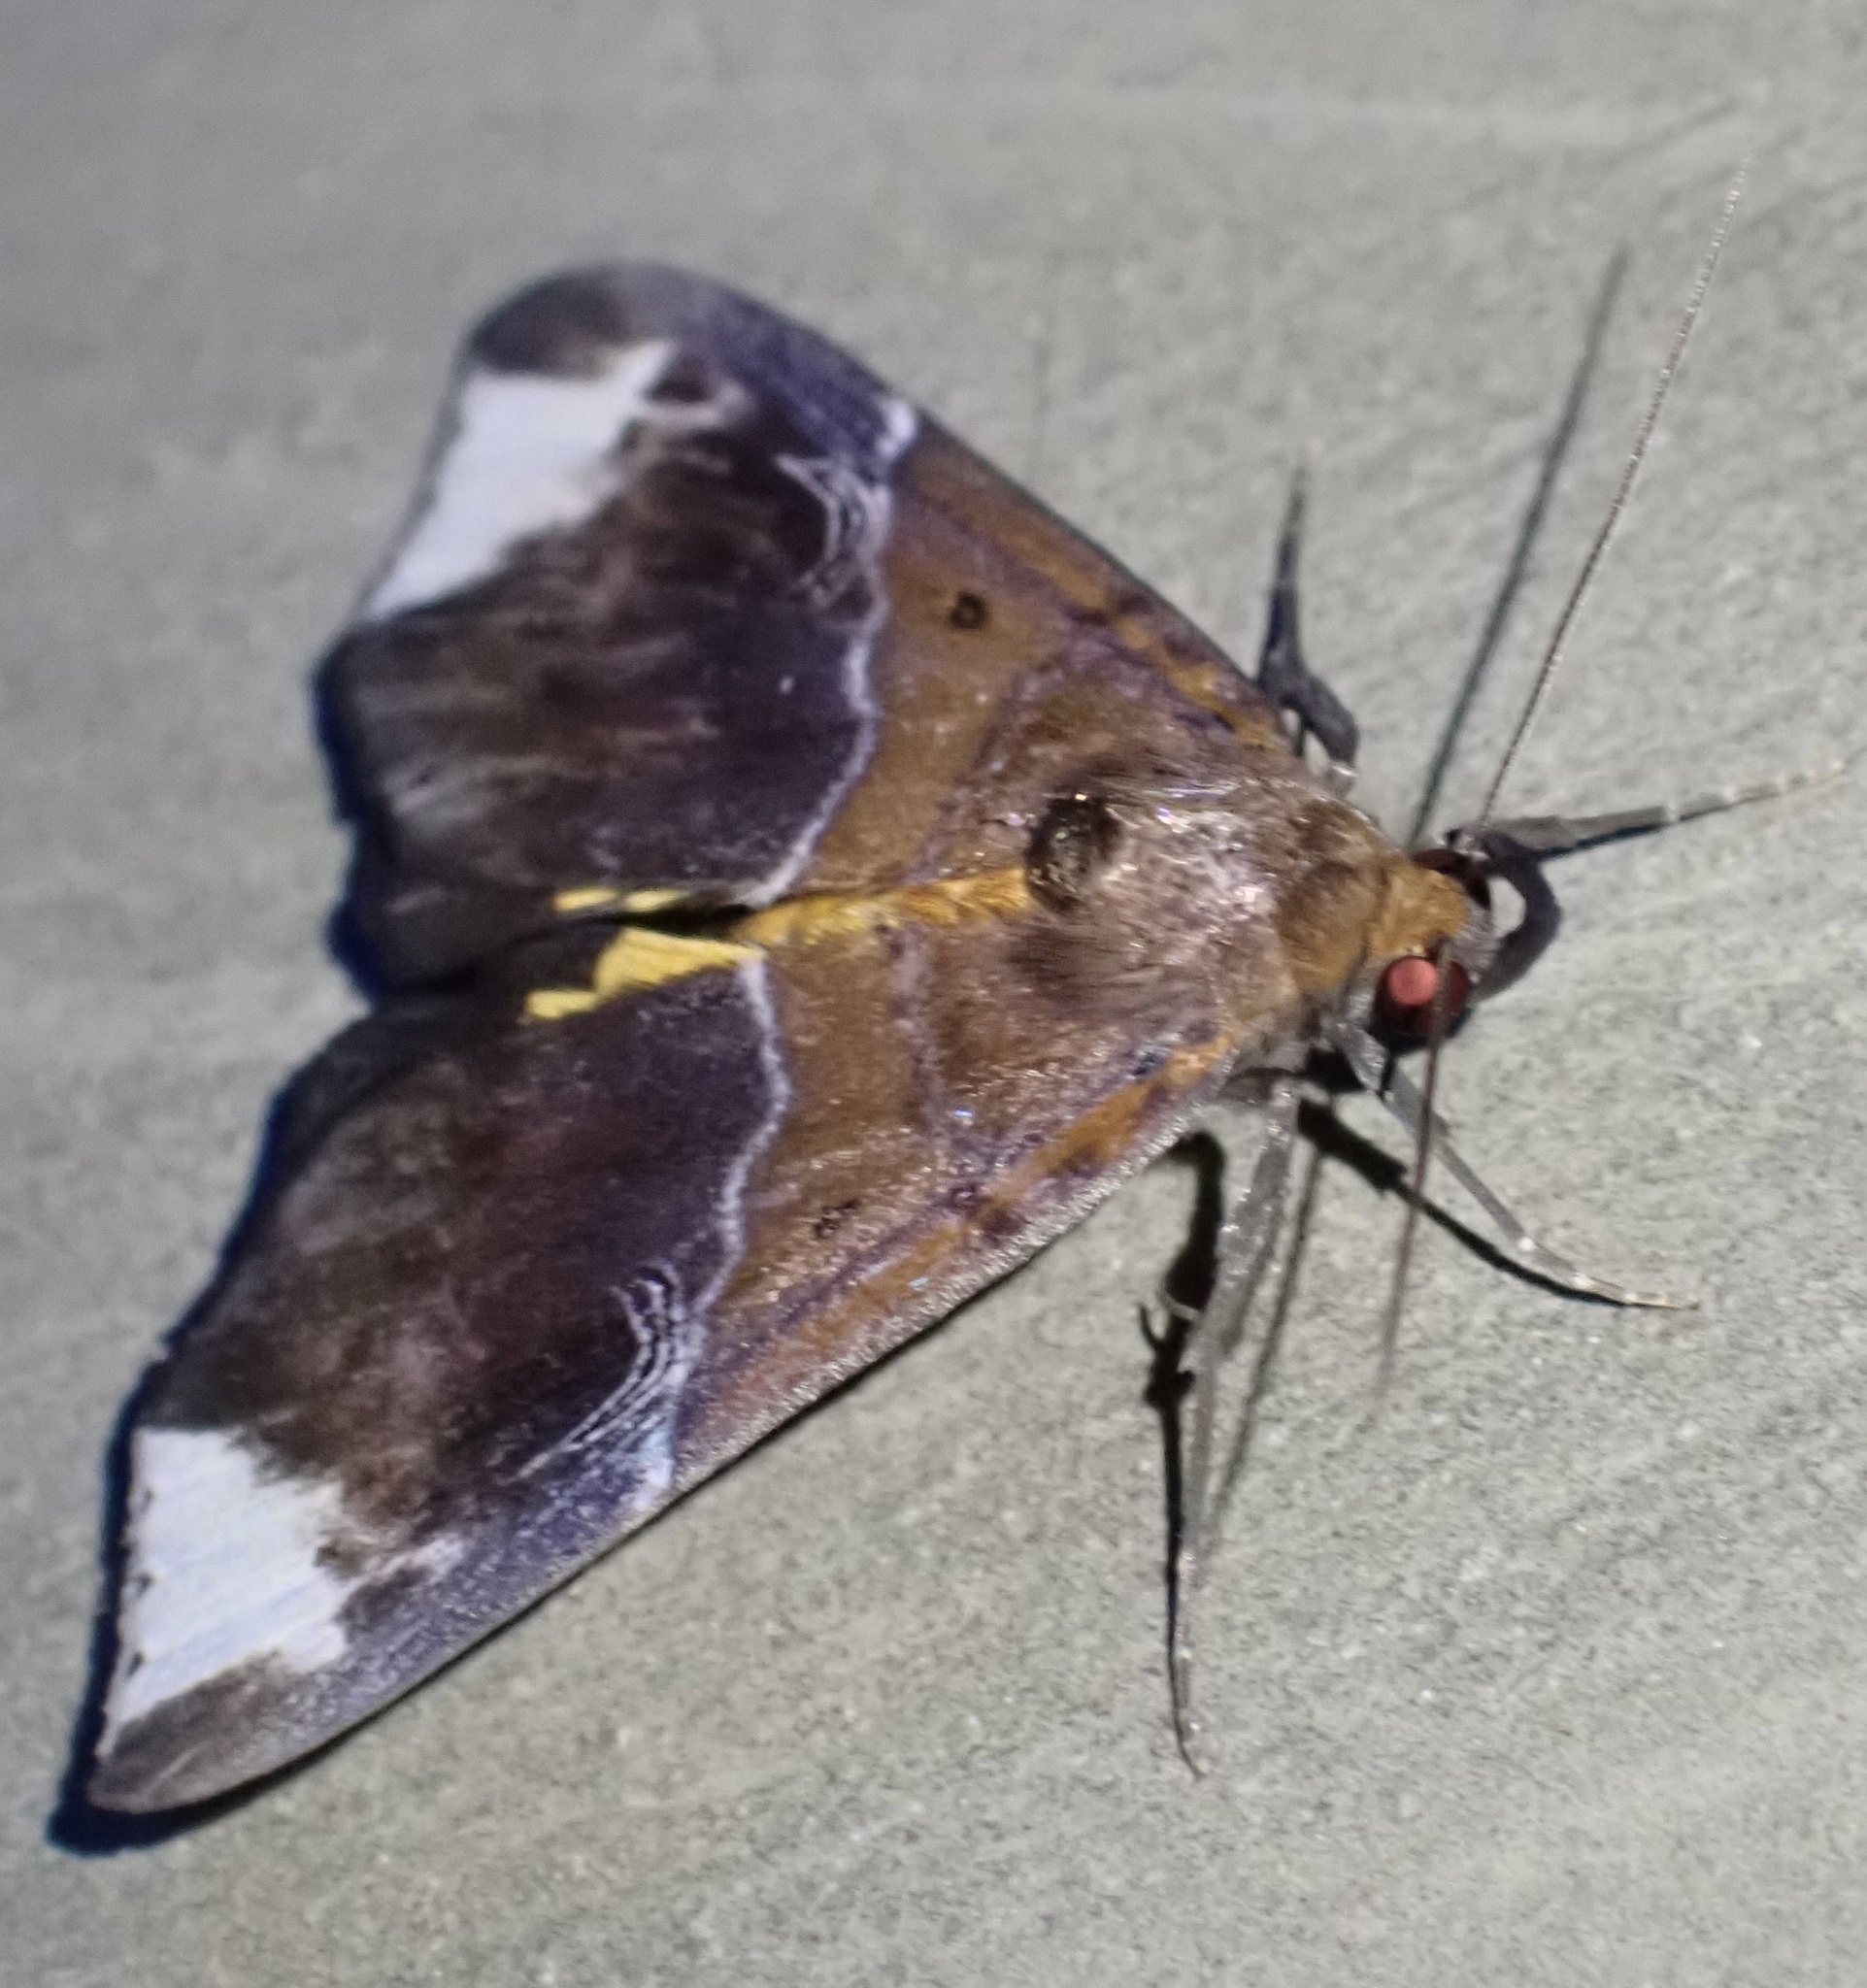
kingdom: Animalia
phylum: Arthropoda
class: Insecta
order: Lepidoptera
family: Erebidae
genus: Euphiuche
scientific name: Euphiuche
